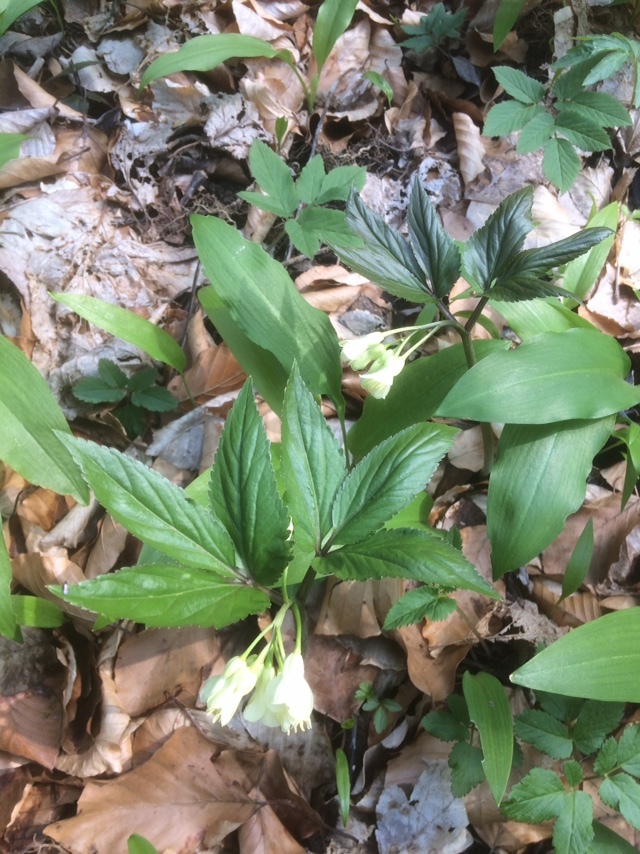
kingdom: Plantae
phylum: Tracheophyta
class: Magnoliopsida
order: Brassicales
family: Brassicaceae
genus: Cardamine
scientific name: Cardamine enneaphyllos
